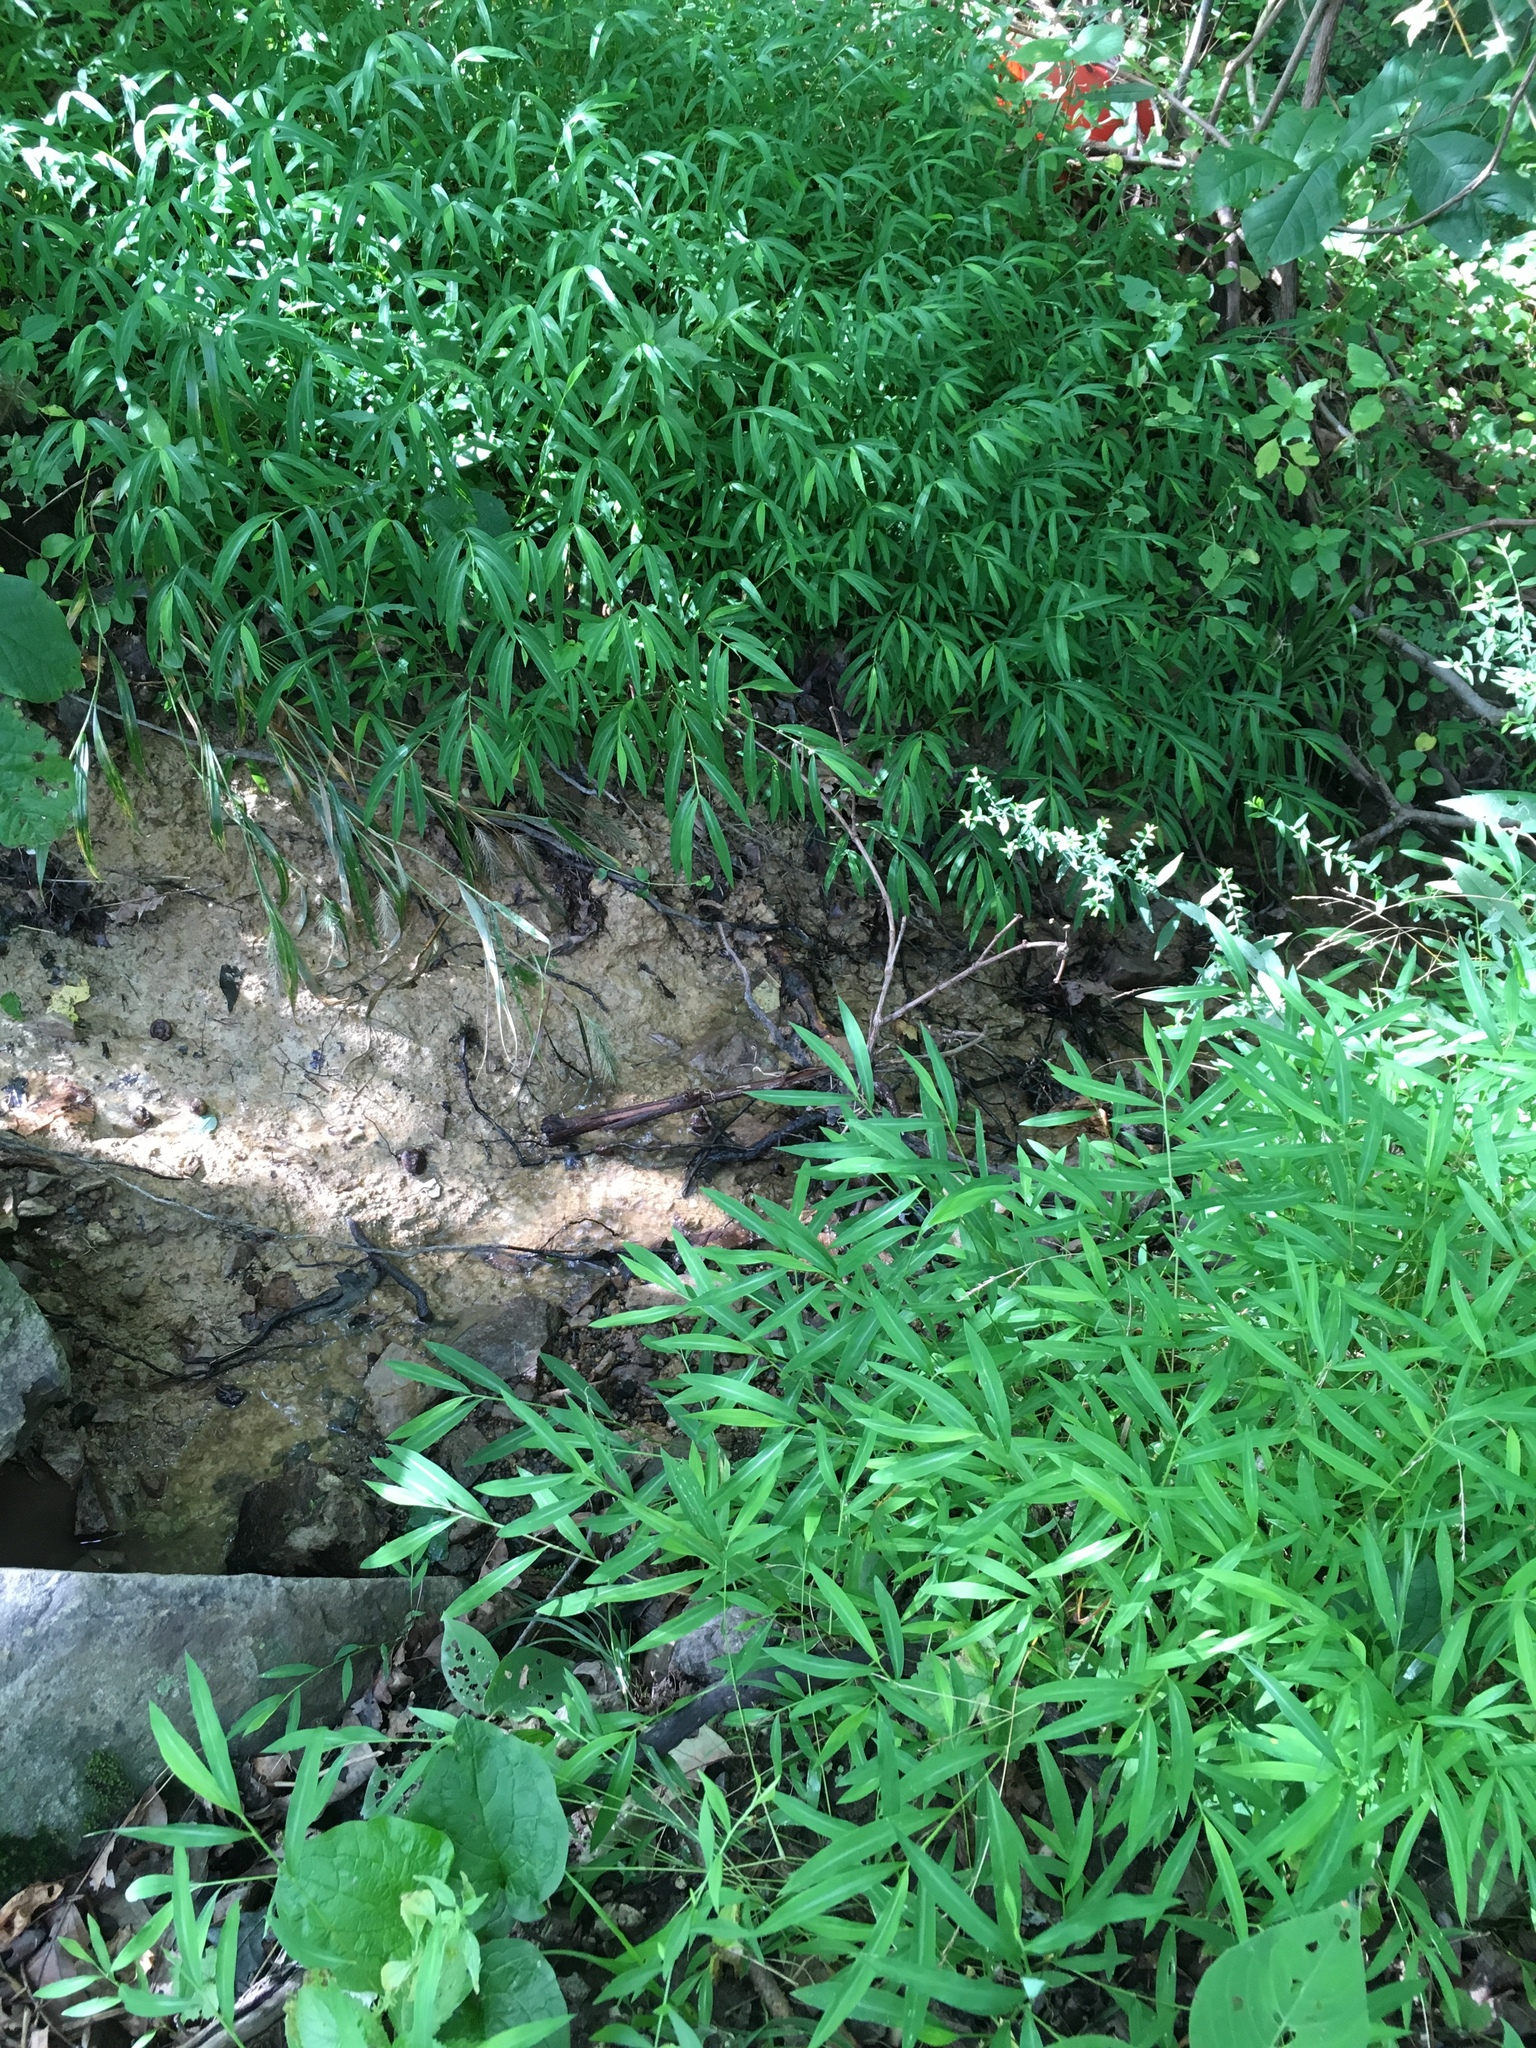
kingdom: Plantae
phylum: Tracheophyta
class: Liliopsida
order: Poales
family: Poaceae
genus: Microstegium
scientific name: Microstegium vimineum
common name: Japanese stiltgrass
